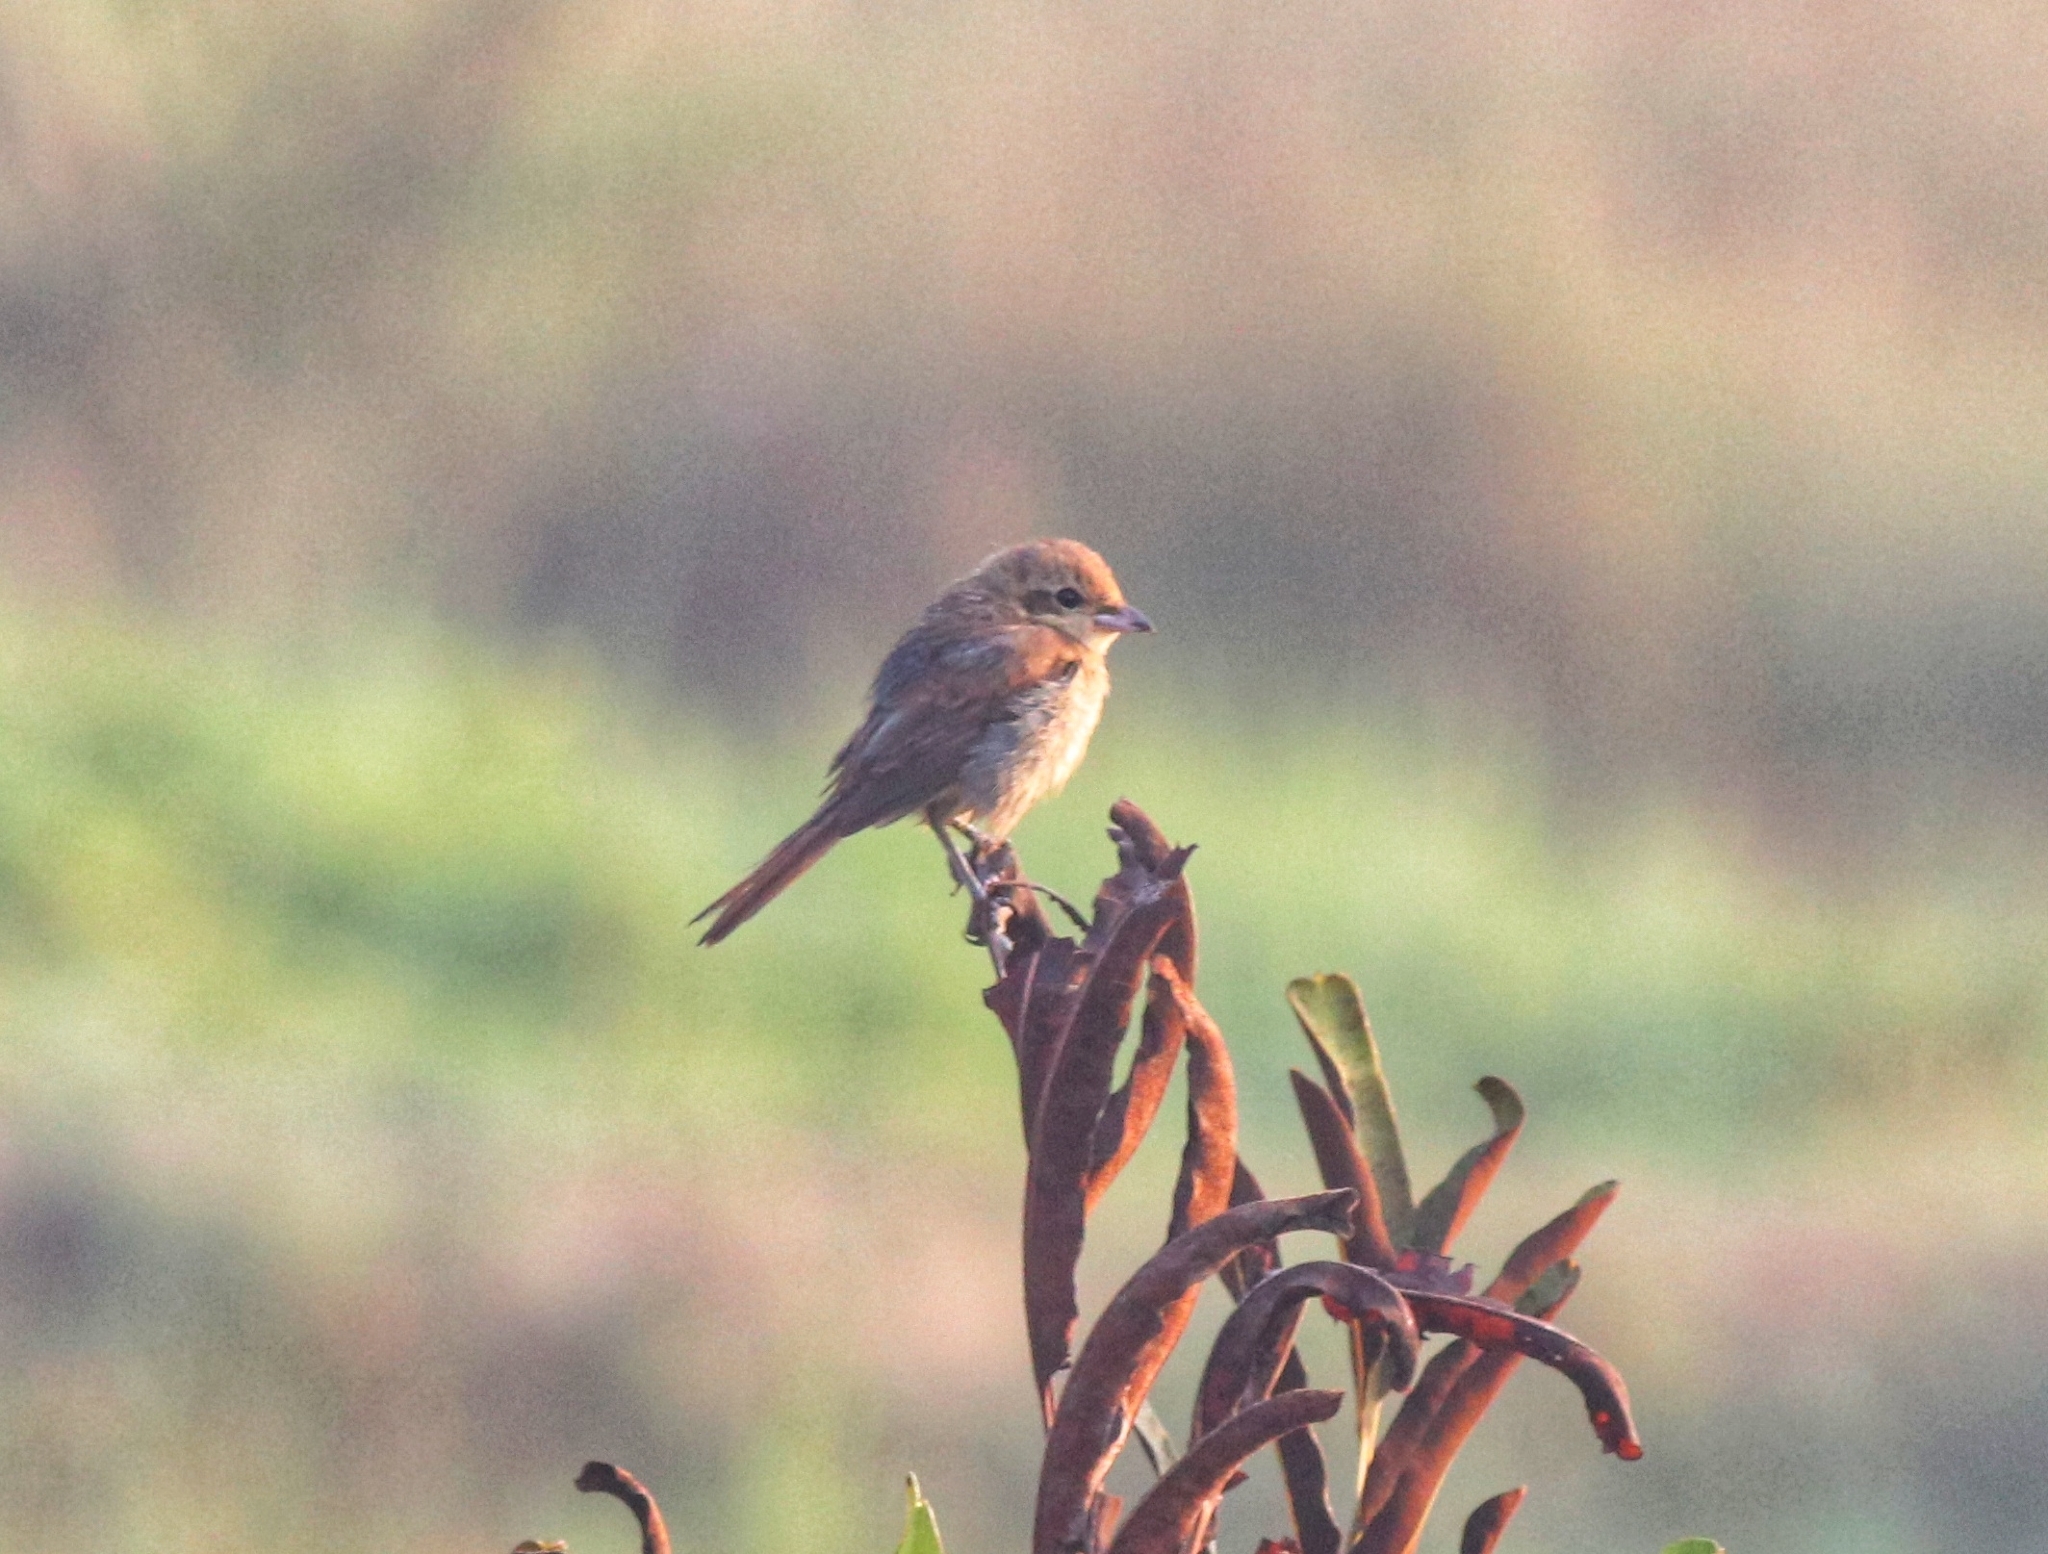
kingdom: Animalia
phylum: Chordata
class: Aves
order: Passeriformes
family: Laniidae
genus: Lanius
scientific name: Lanius cristatus
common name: Brown shrike
